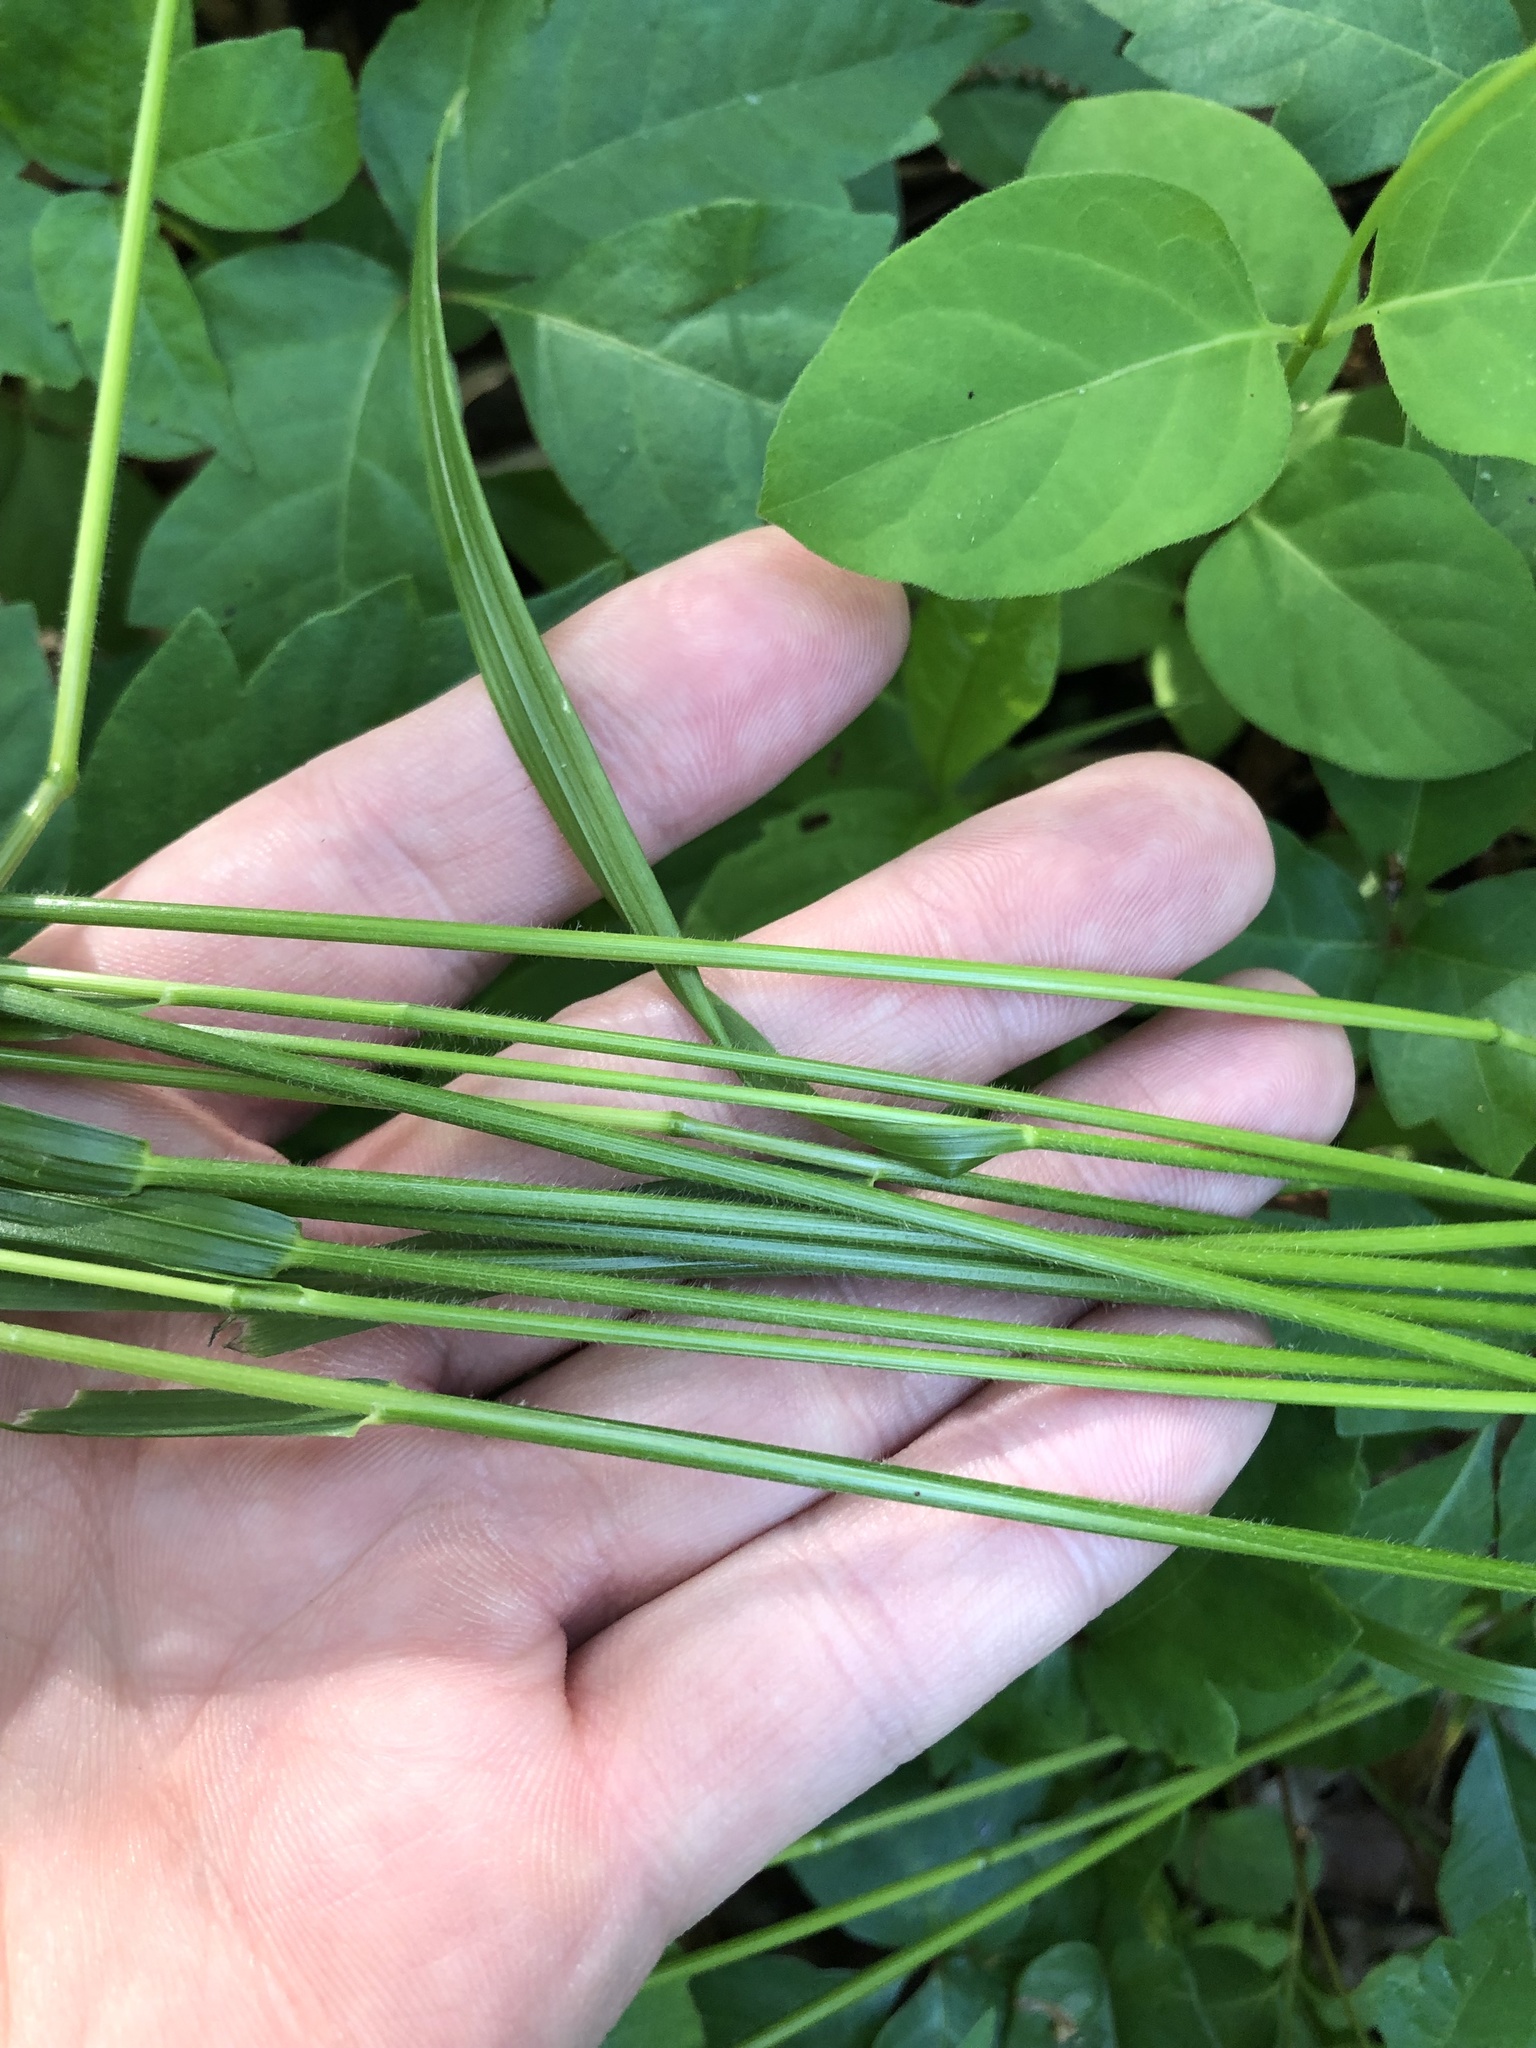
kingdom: Plantae
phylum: Tracheophyta
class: Liliopsida
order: Poales
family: Poaceae
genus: Festuca
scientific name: Festuca subverticillata
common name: Nodding fescue
